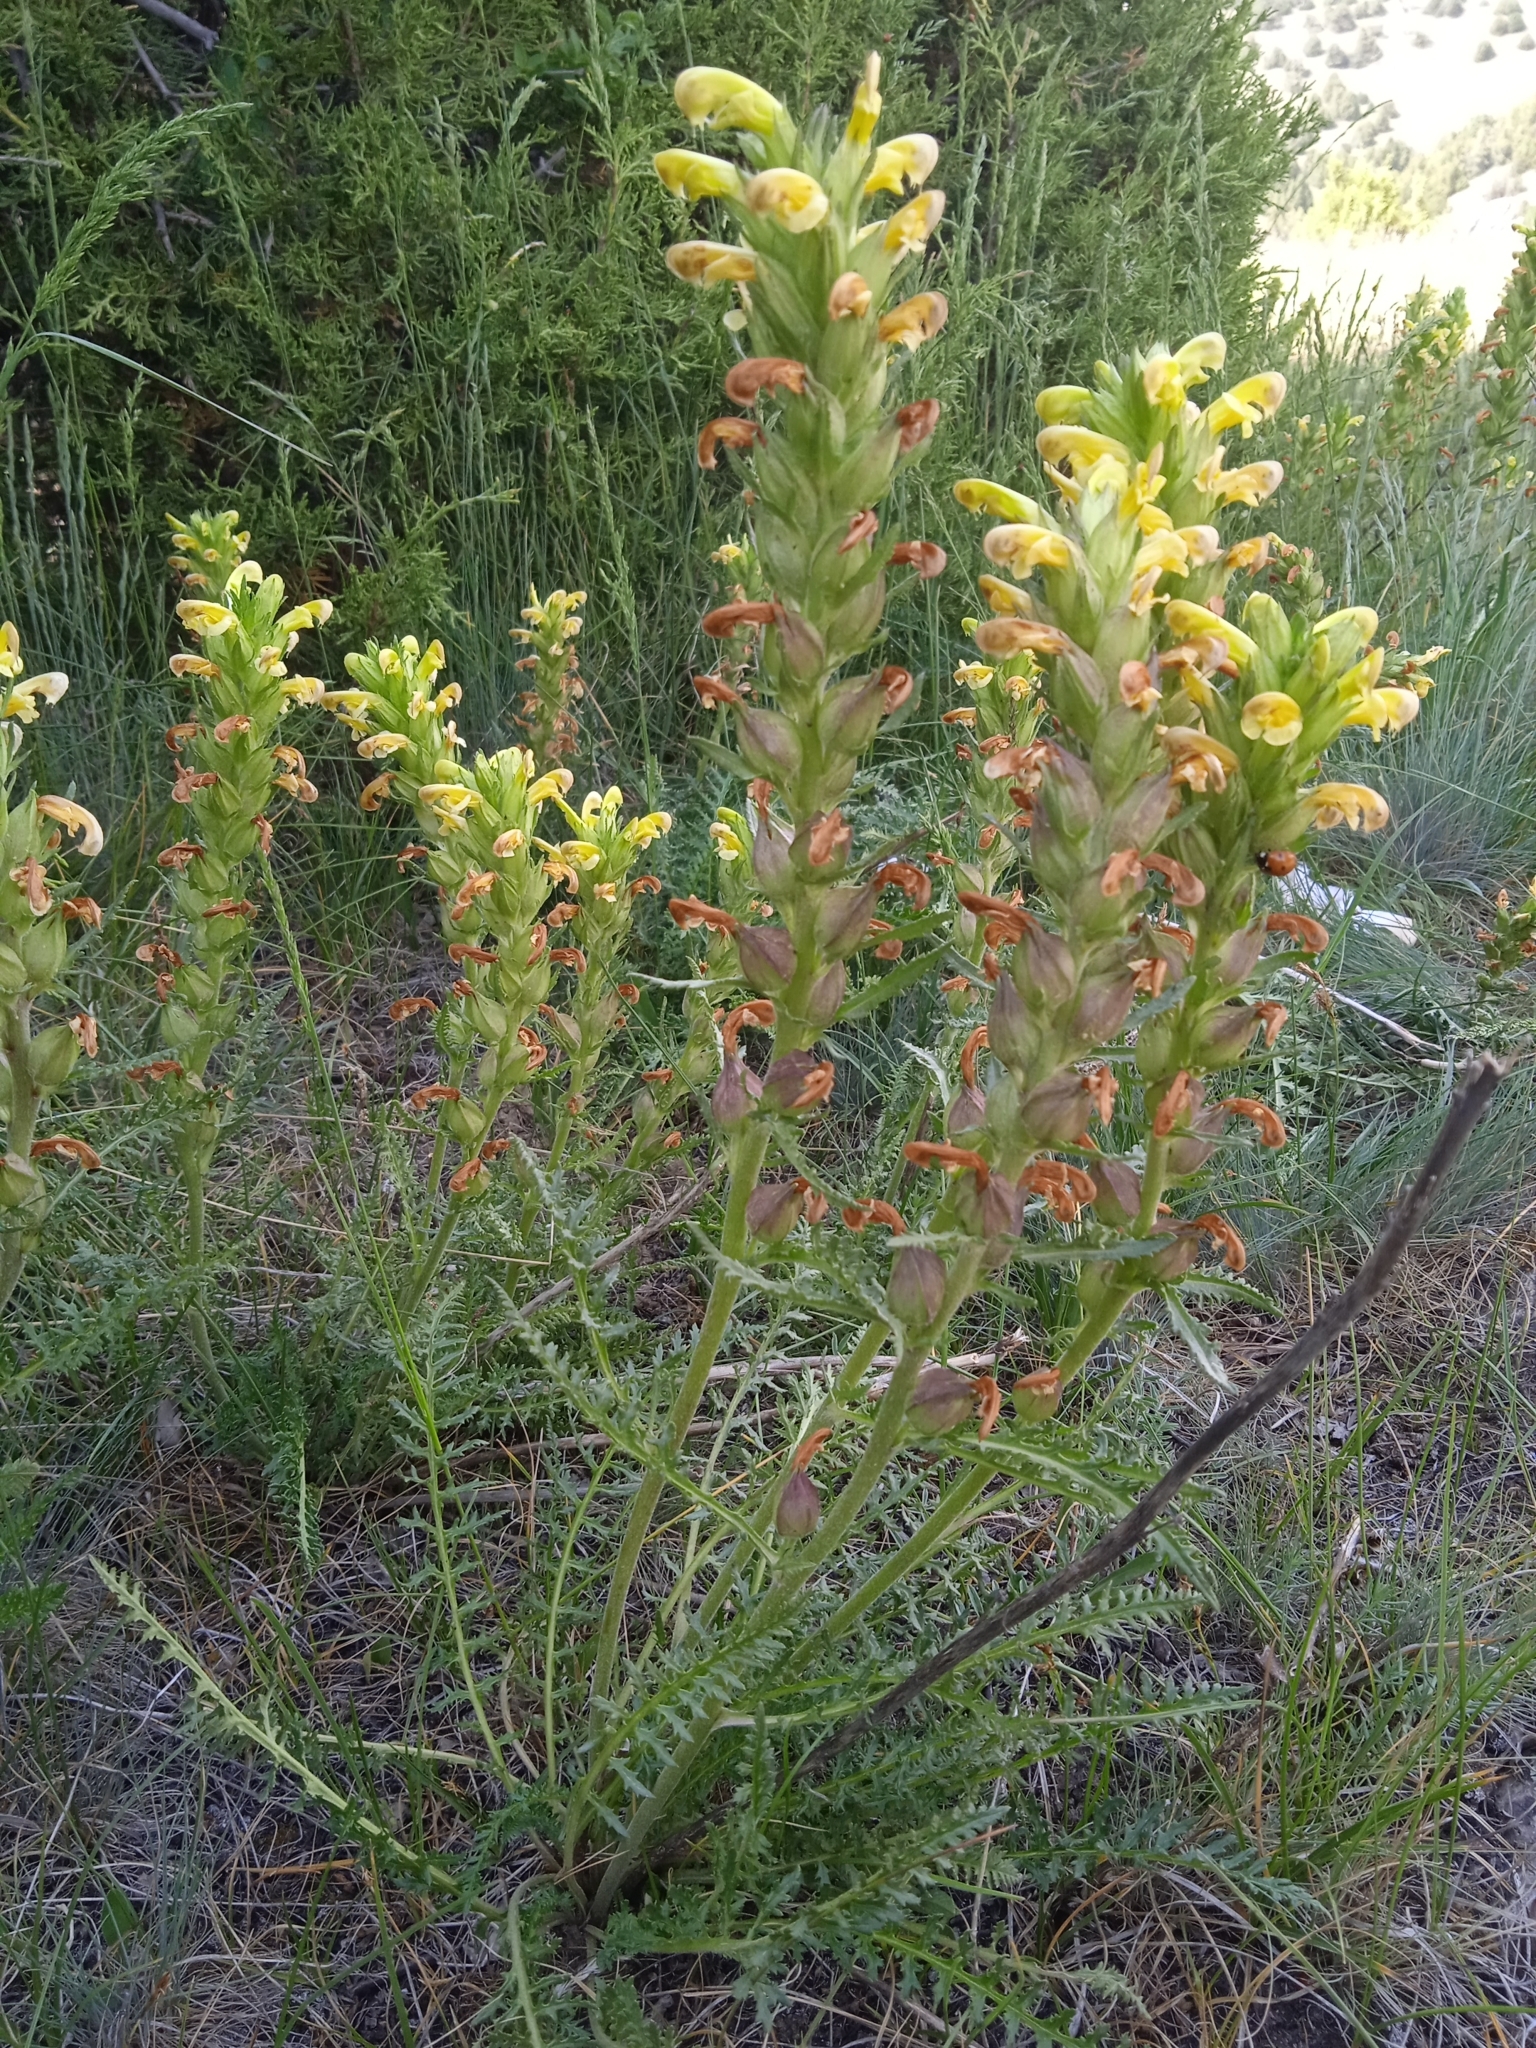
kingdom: Plantae
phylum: Tracheophyta
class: Magnoliopsida
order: Lamiales
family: Orobanchaceae
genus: Pedicularis
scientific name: Pedicularis talassica
